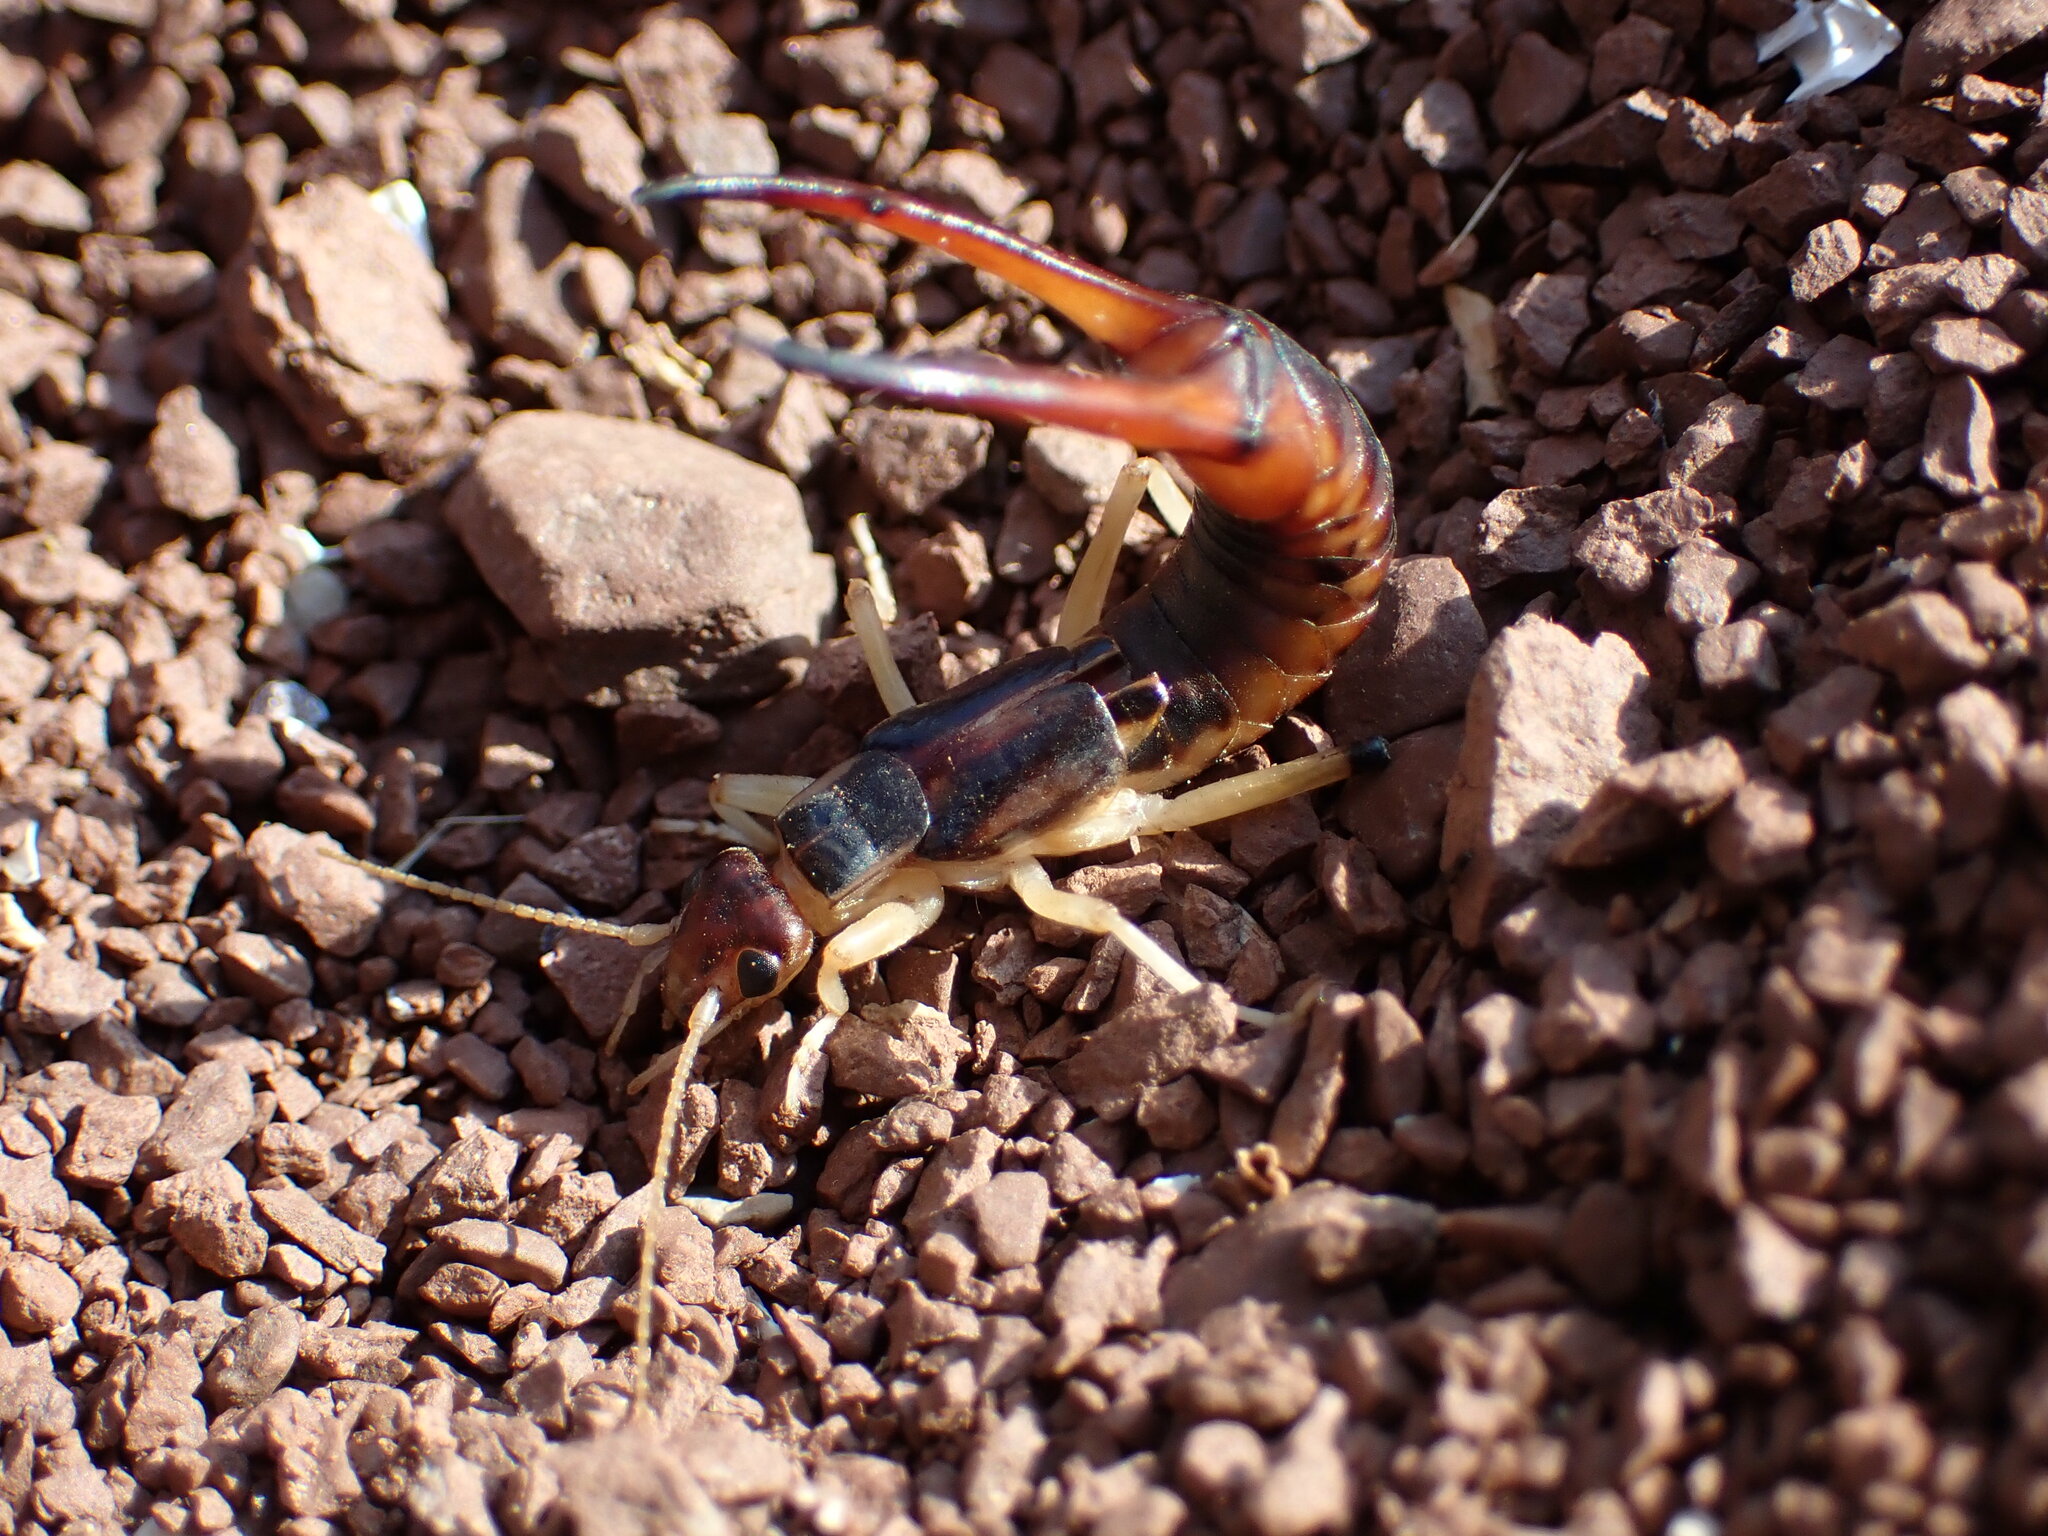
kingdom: Animalia
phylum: Arthropoda
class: Insecta
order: Dermaptera
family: Labiduridae
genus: Labidura
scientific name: Labidura riparia
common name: Striped earwig
